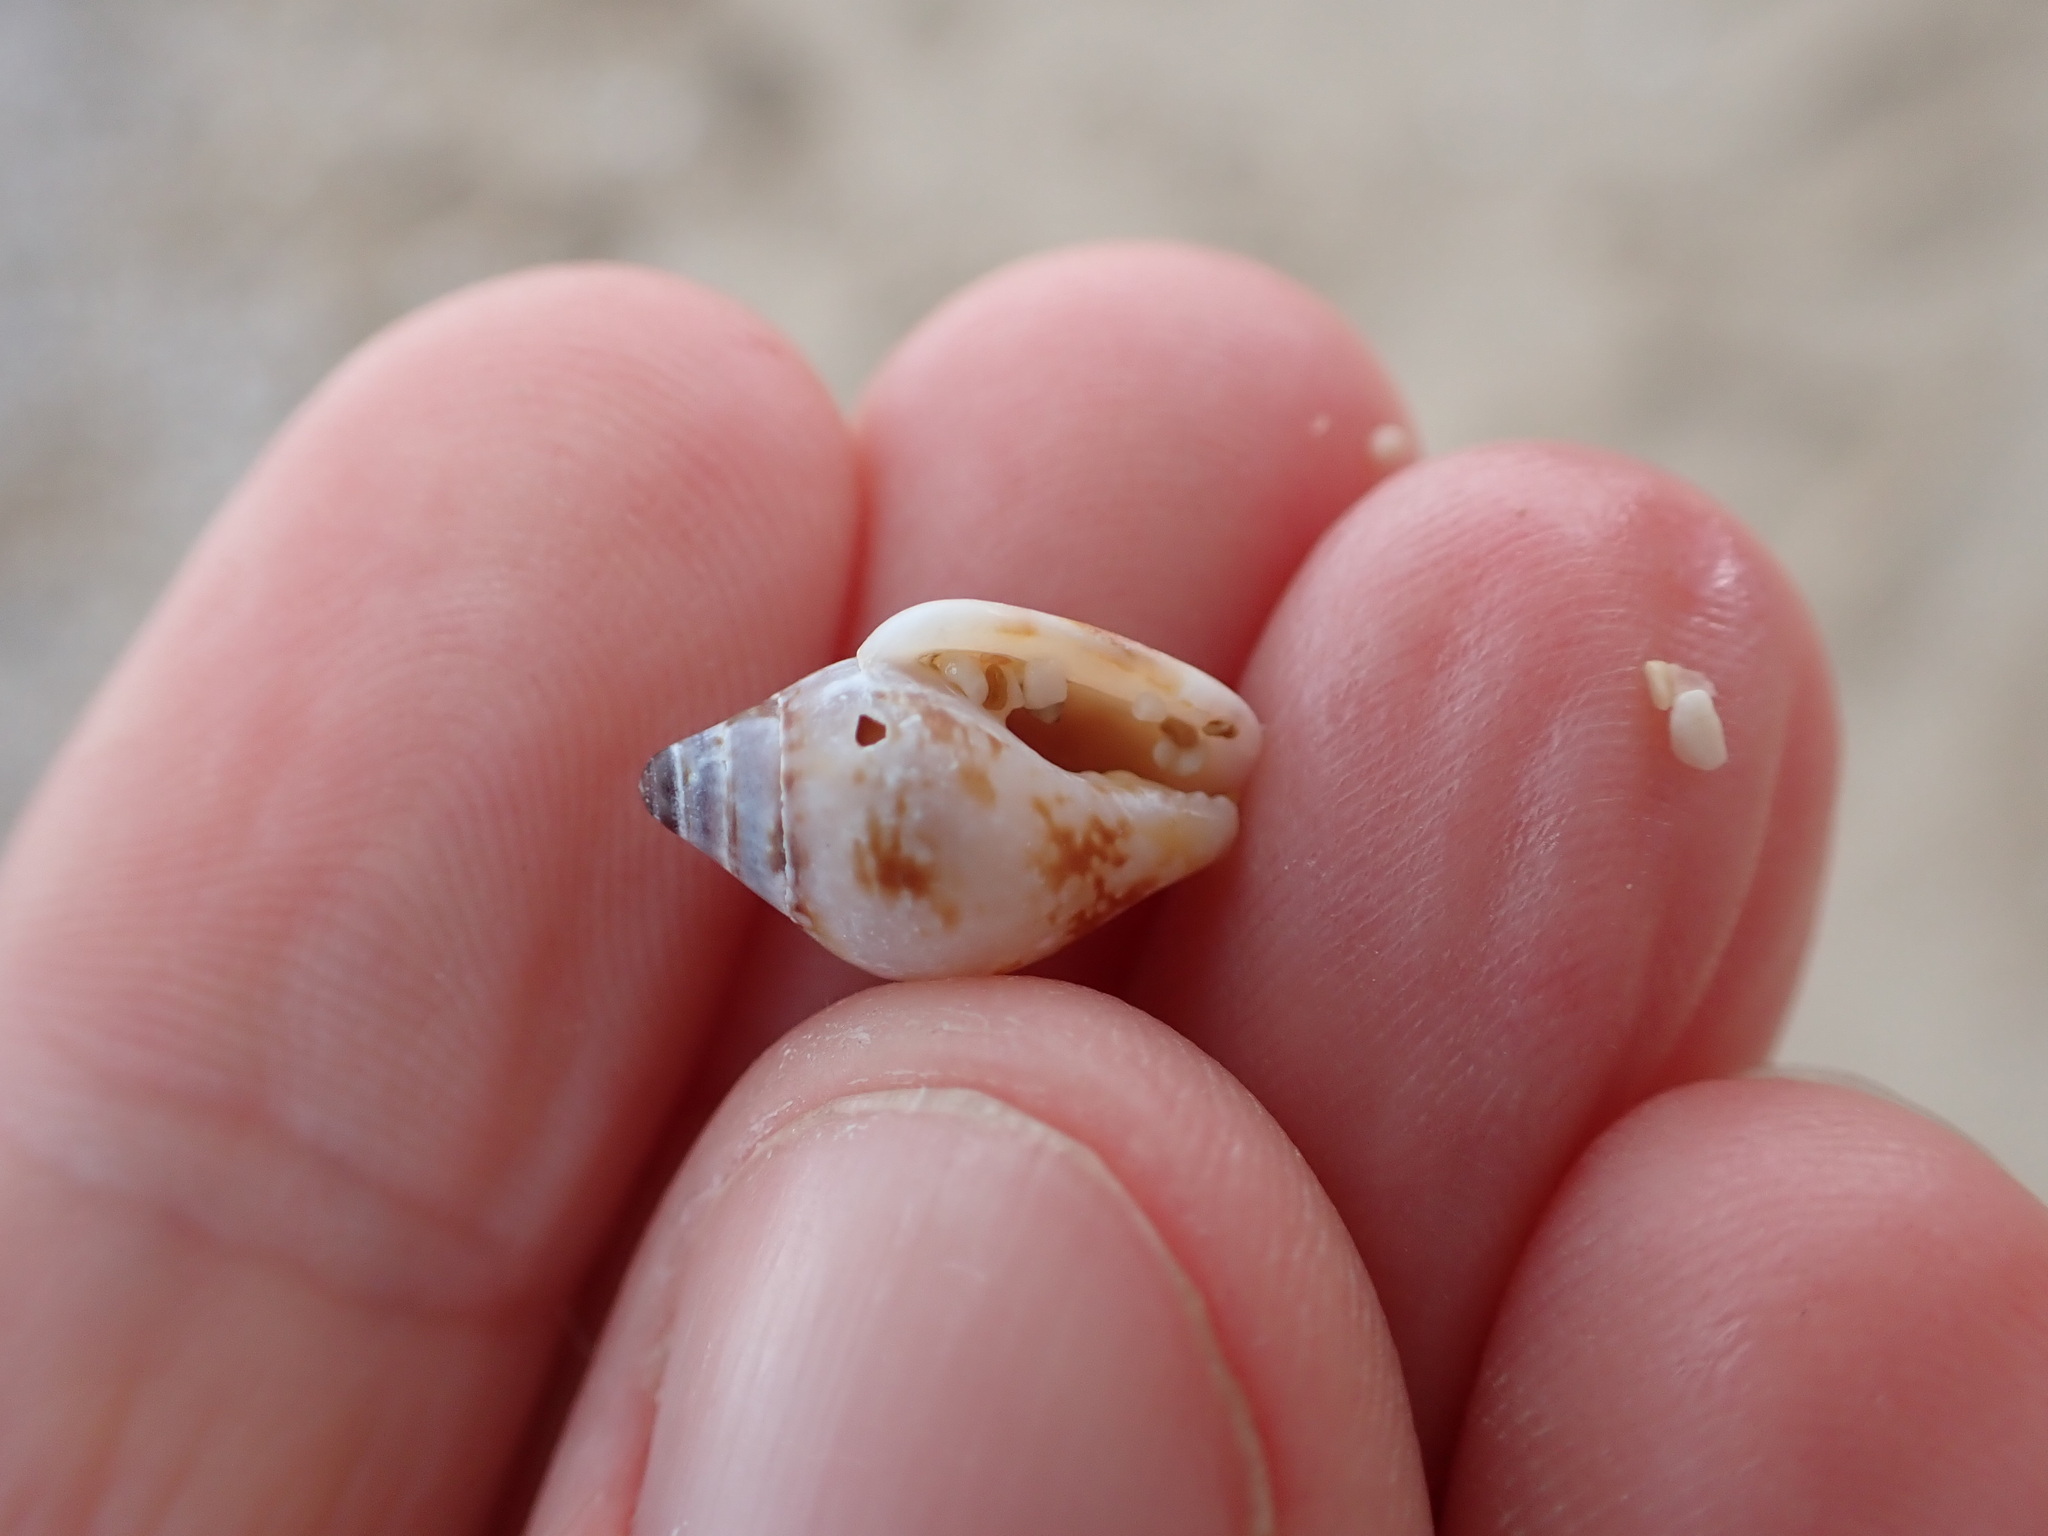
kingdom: Animalia
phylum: Mollusca
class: Gastropoda
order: Neogastropoda
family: Columbellidae
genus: Columbella
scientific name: Columbella rustica
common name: Rustic dove shell
